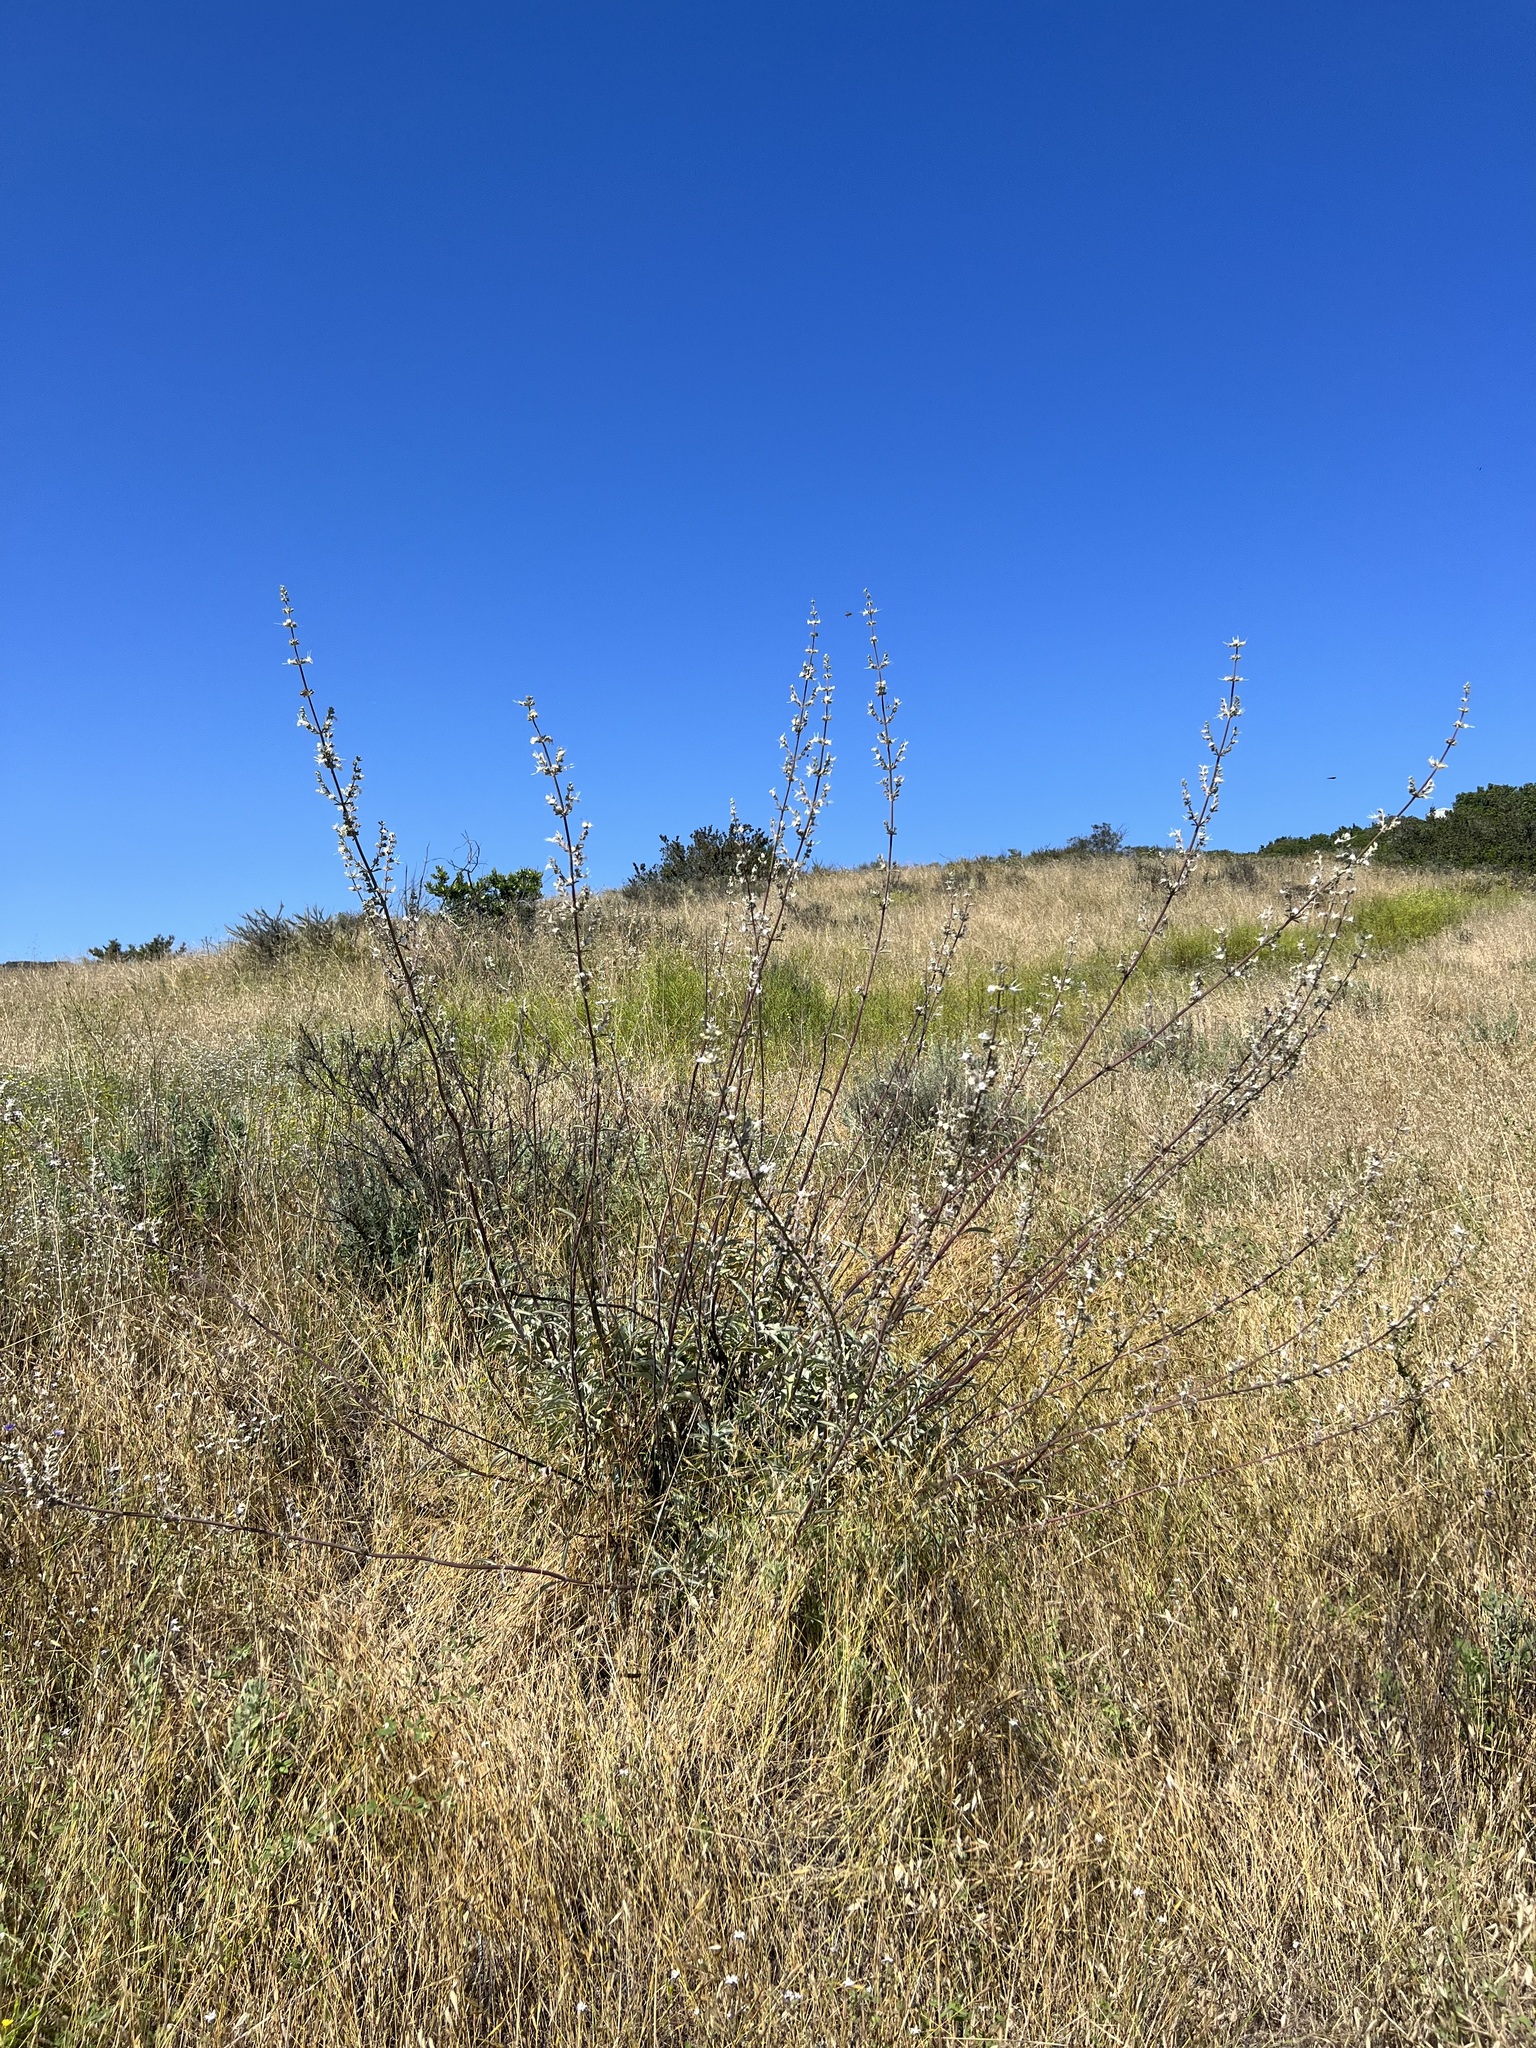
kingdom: Plantae
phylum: Tracheophyta
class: Magnoliopsida
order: Lamiales
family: Lamiaceae
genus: Salvia
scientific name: Salvia apiana
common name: White sage
